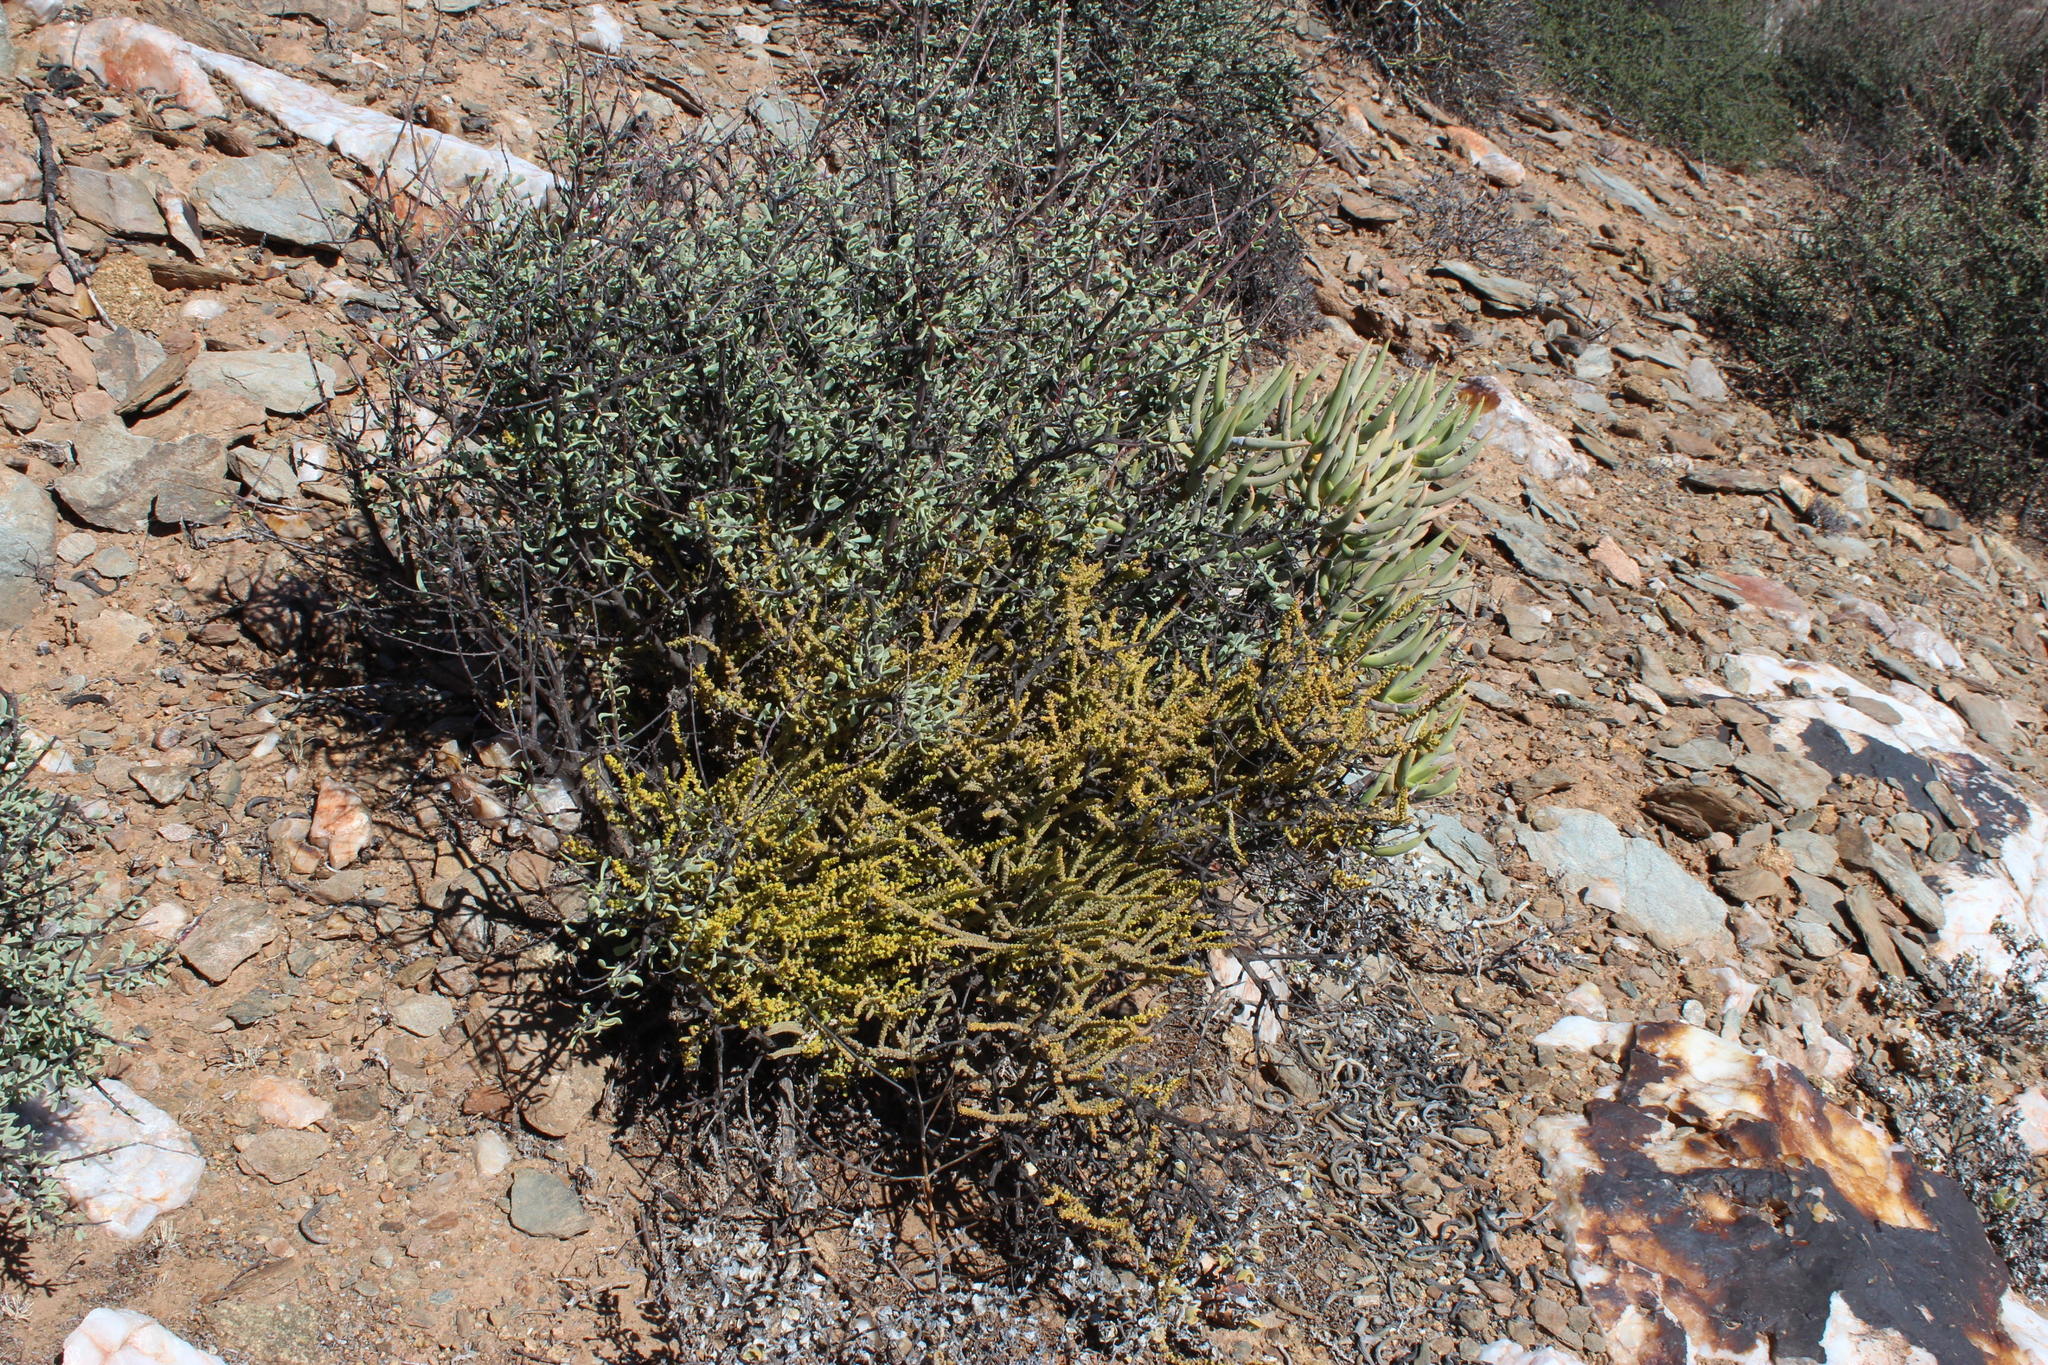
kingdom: Plantae
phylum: Tracheophyta
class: Magnoliopsida
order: Saxifragales
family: Crassulaceae
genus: Crassula
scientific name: Crassula muscosa
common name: Toy-cypress
